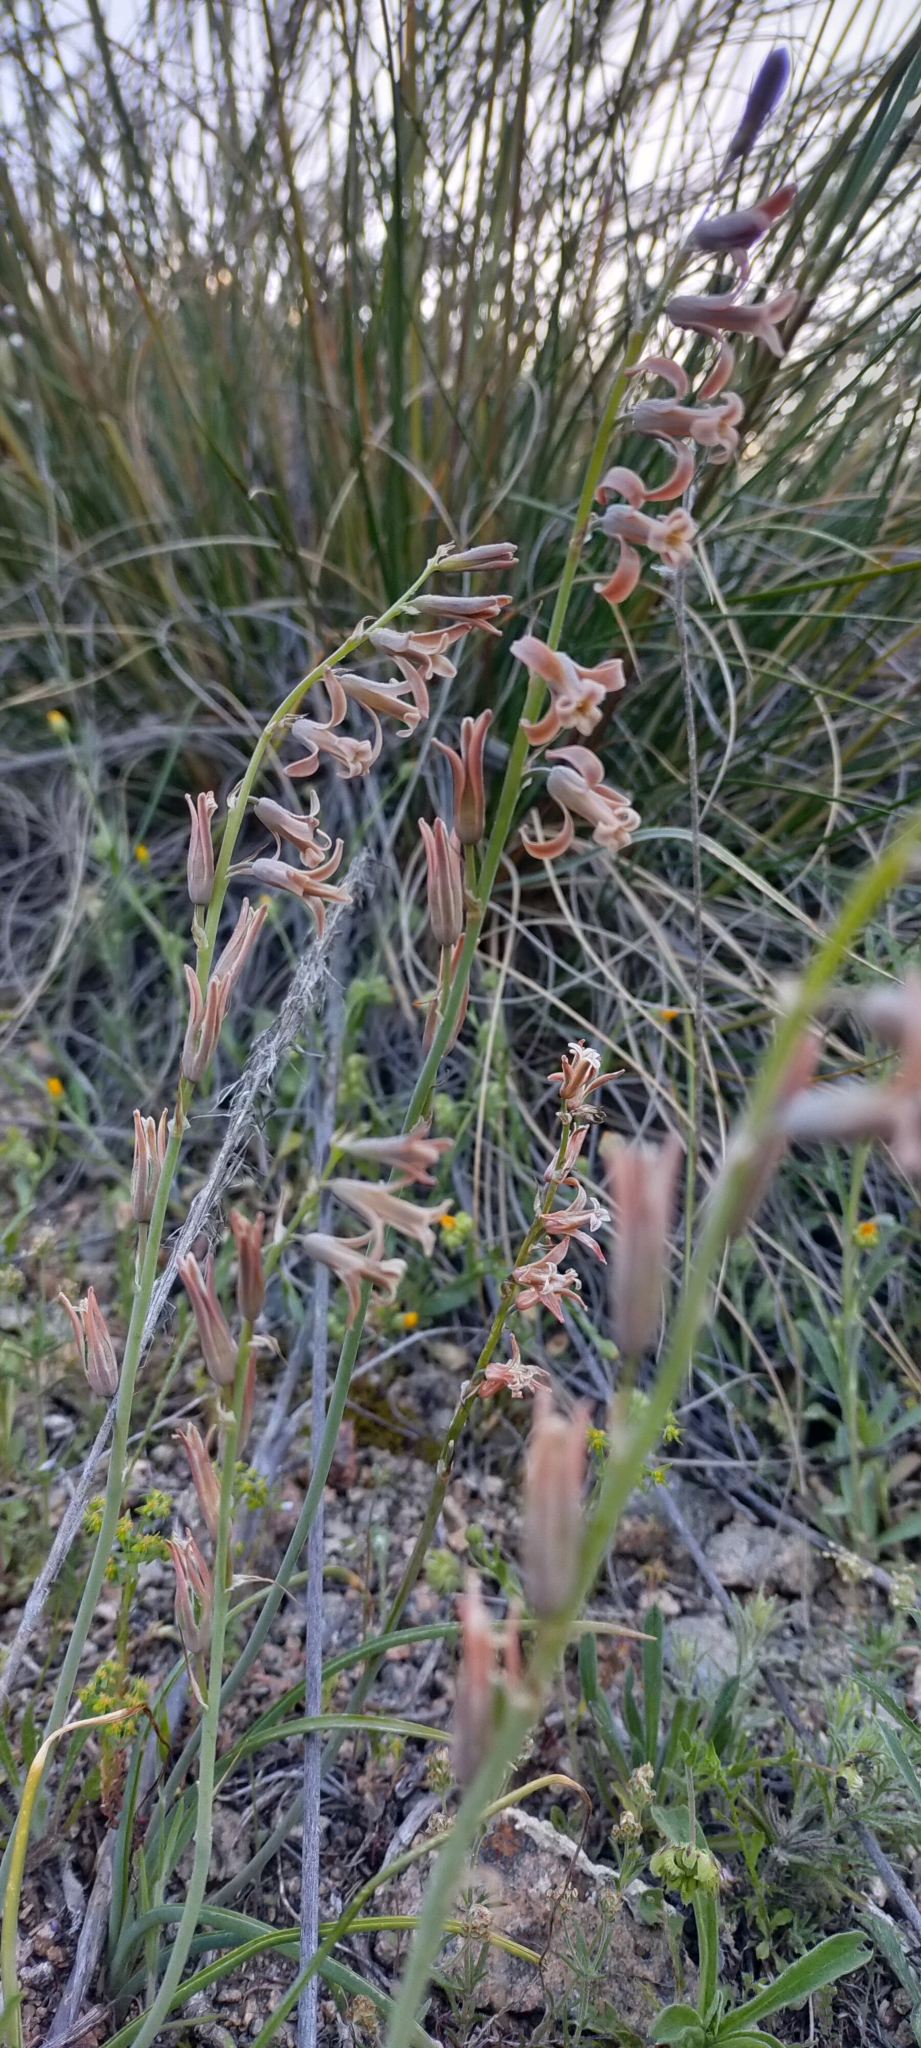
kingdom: Plantae
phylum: Tracheophyta
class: Liliopsida
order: Asparagales
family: Asparagaceae
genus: Dipcadi
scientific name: Dipcadi serotinum
